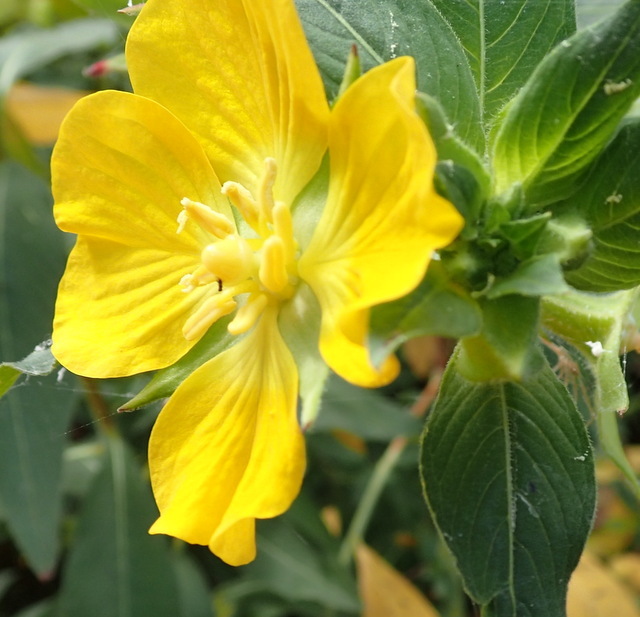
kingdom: Plantae
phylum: Tracheophyta
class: Magnoliopsida
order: Myrtales
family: Onagraceae
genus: Ludwigia
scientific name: Ludwigia peruviana
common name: Peruvian primrose-willow
